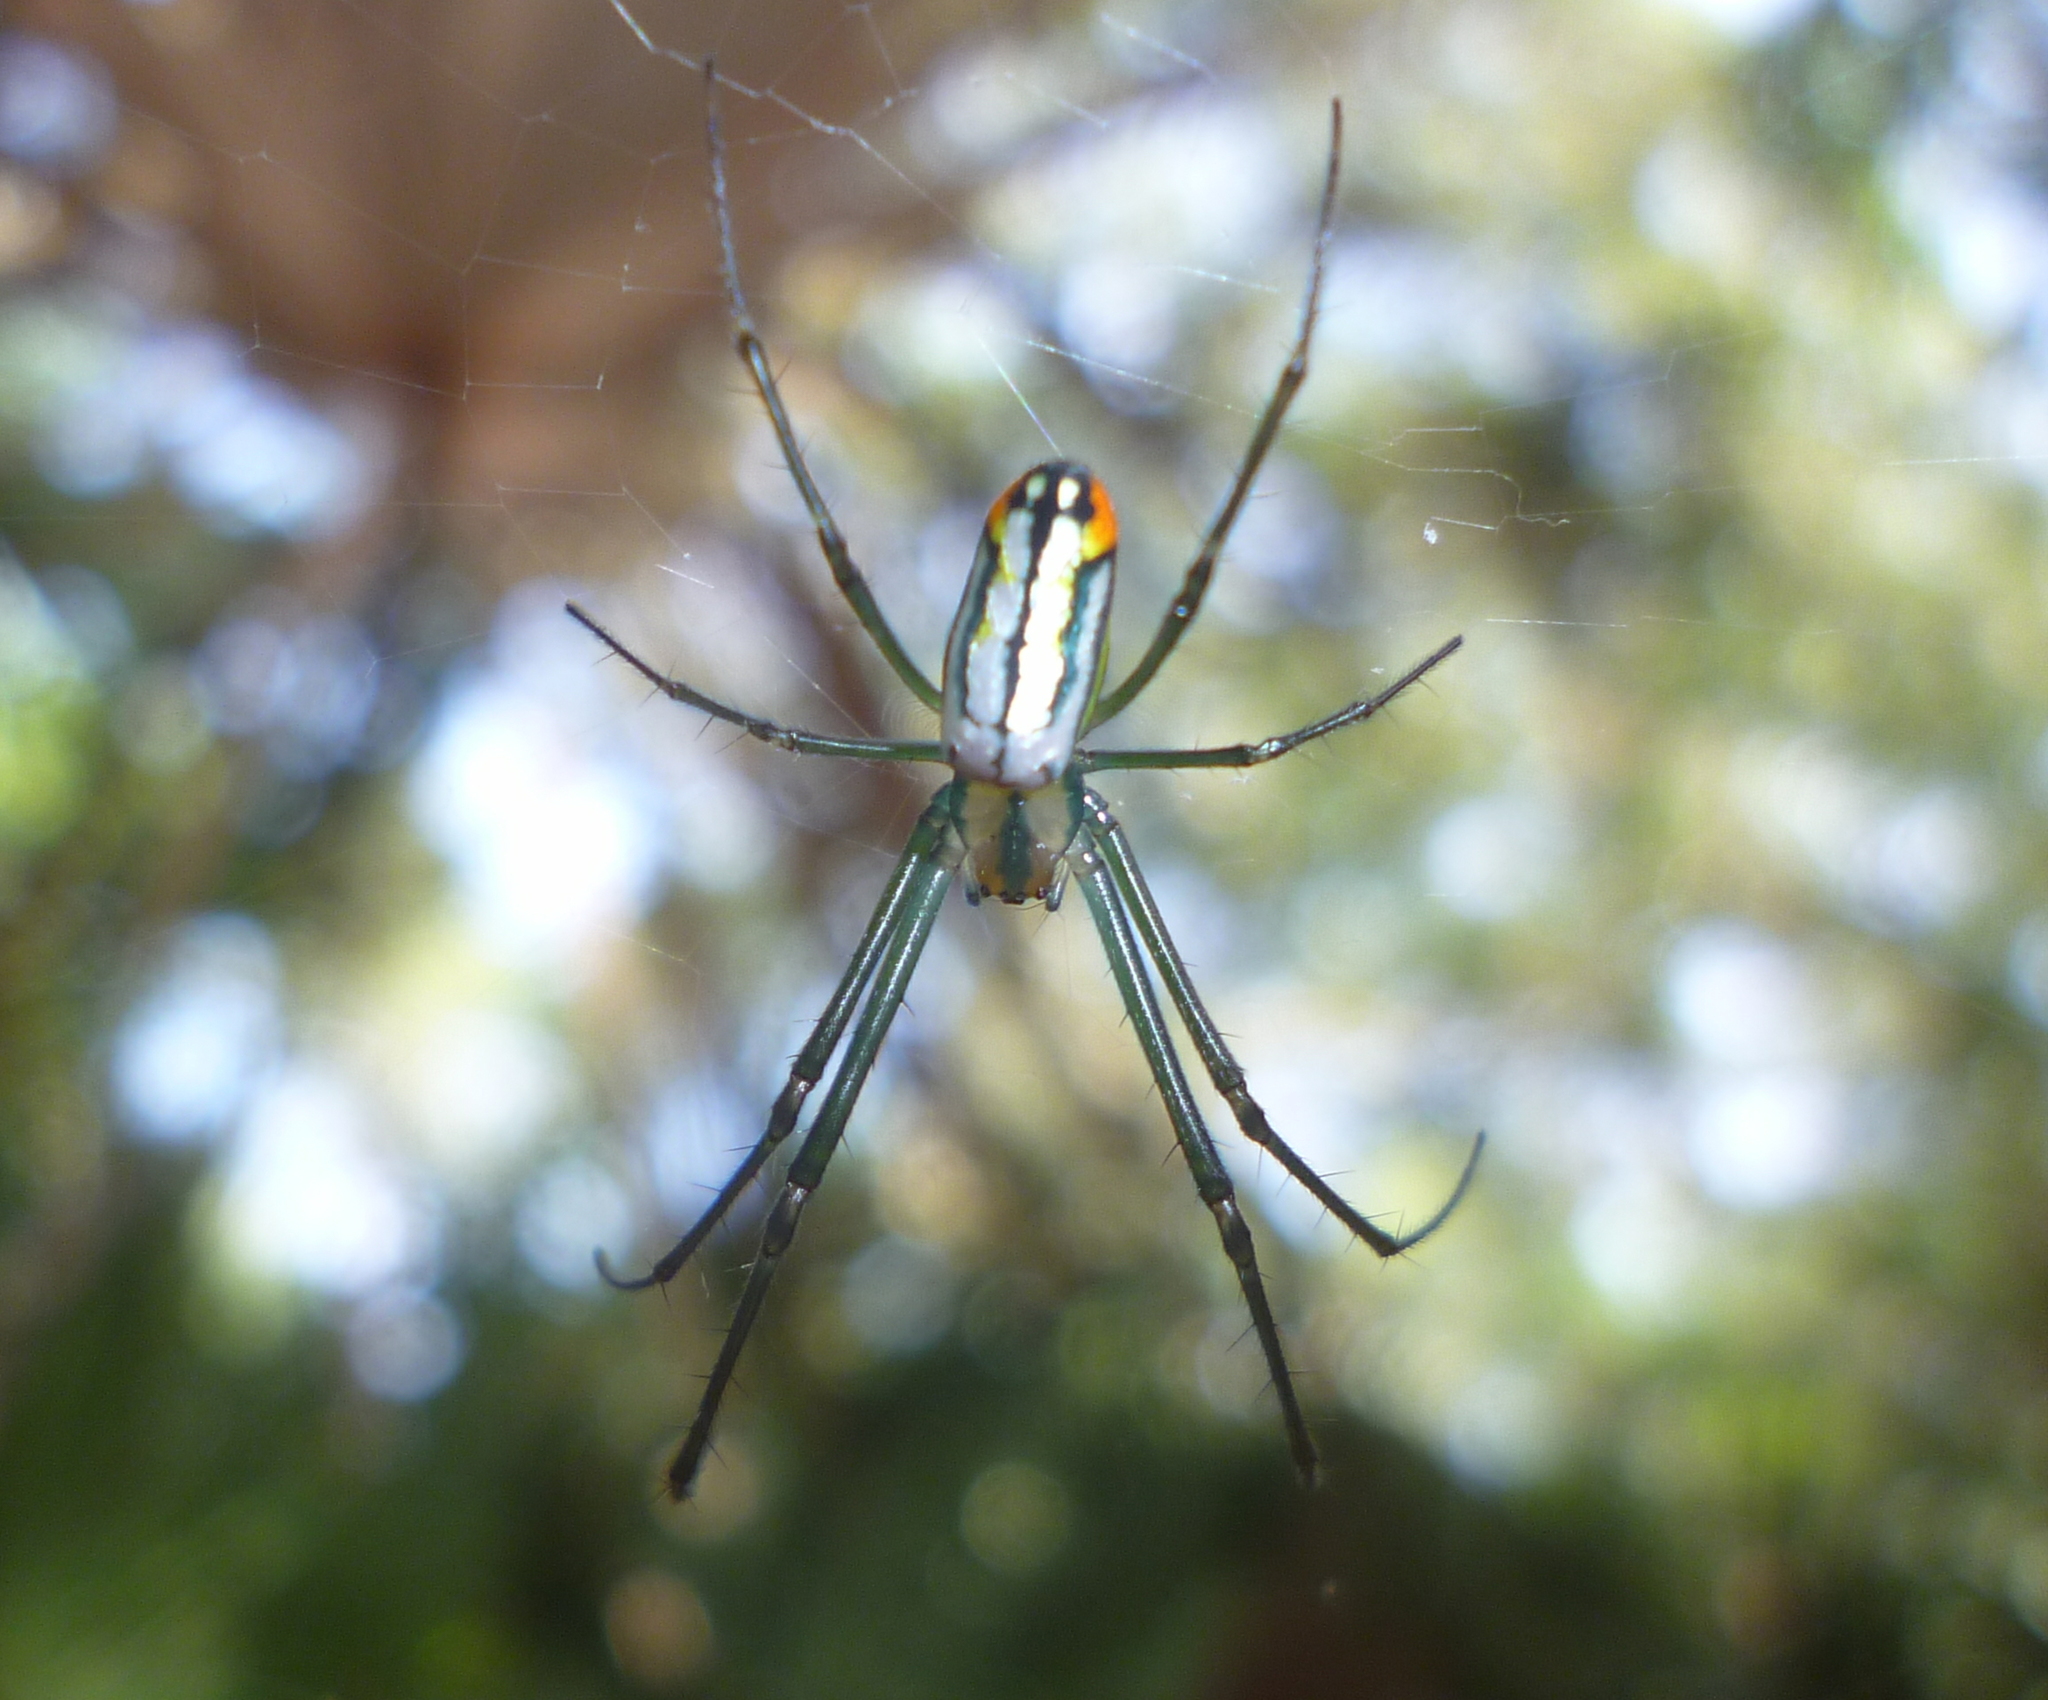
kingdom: Animalia
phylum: Arthropoda
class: Arachnida
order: Araneae
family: Tetragnathidae
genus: Leucauge
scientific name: Leucauge argyrobapta
